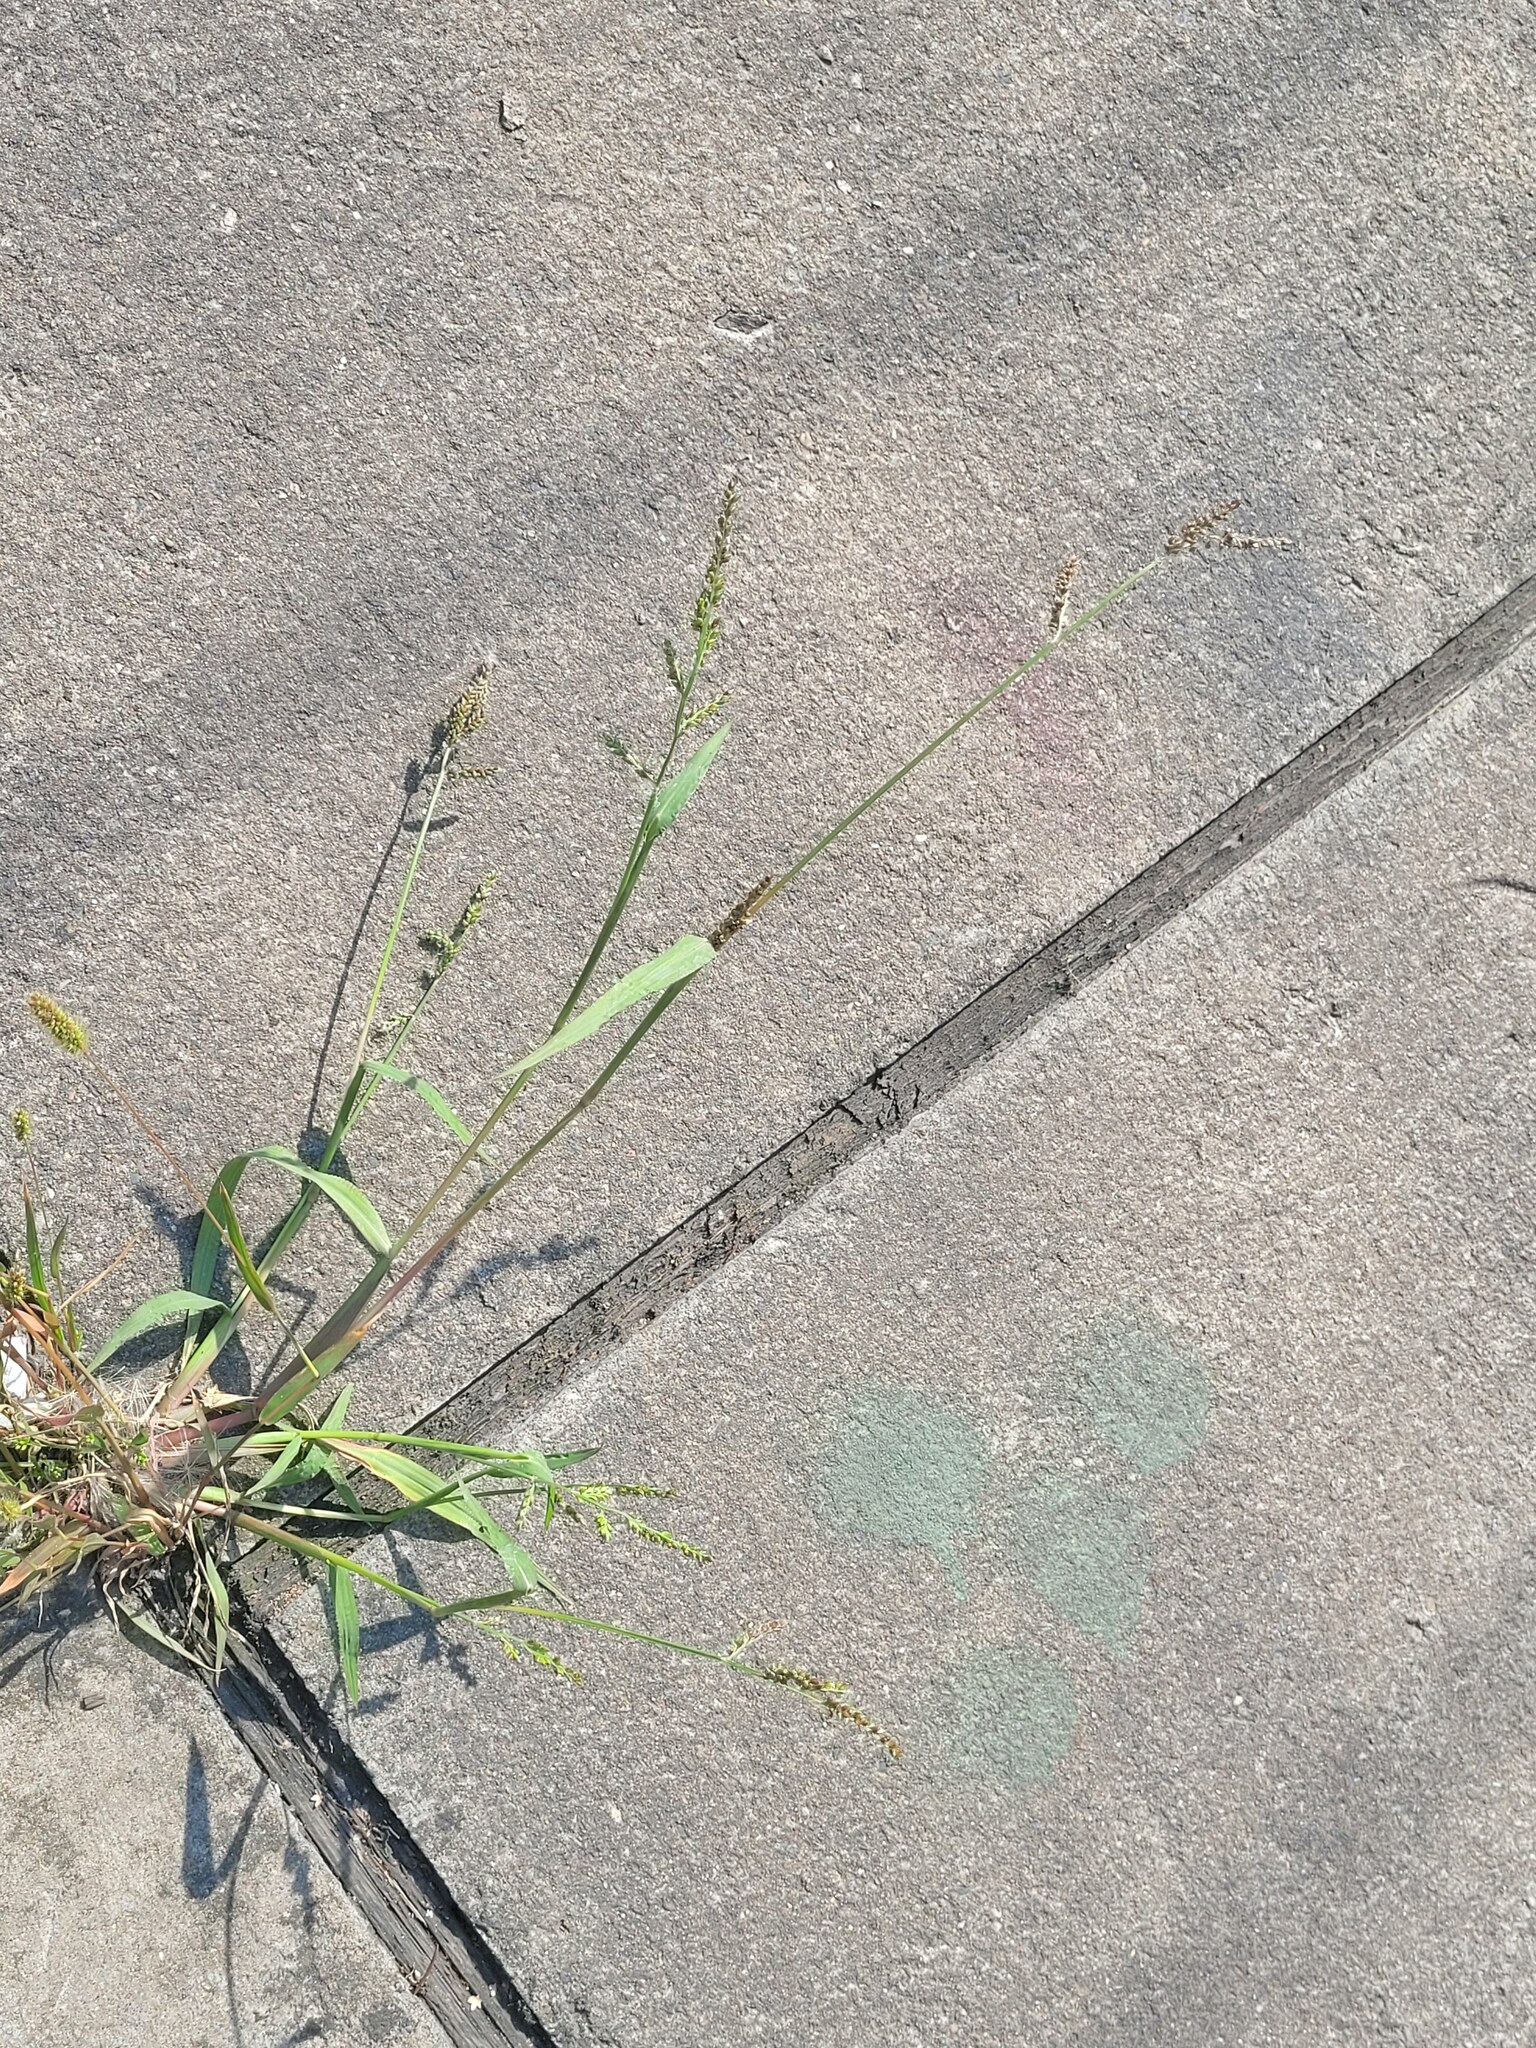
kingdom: Plantae
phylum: Tracheophyta
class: Liliopsida
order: Poales
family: Poaceae
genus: Echinochloa
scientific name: Echinochloa crus-galli
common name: Cockspur
